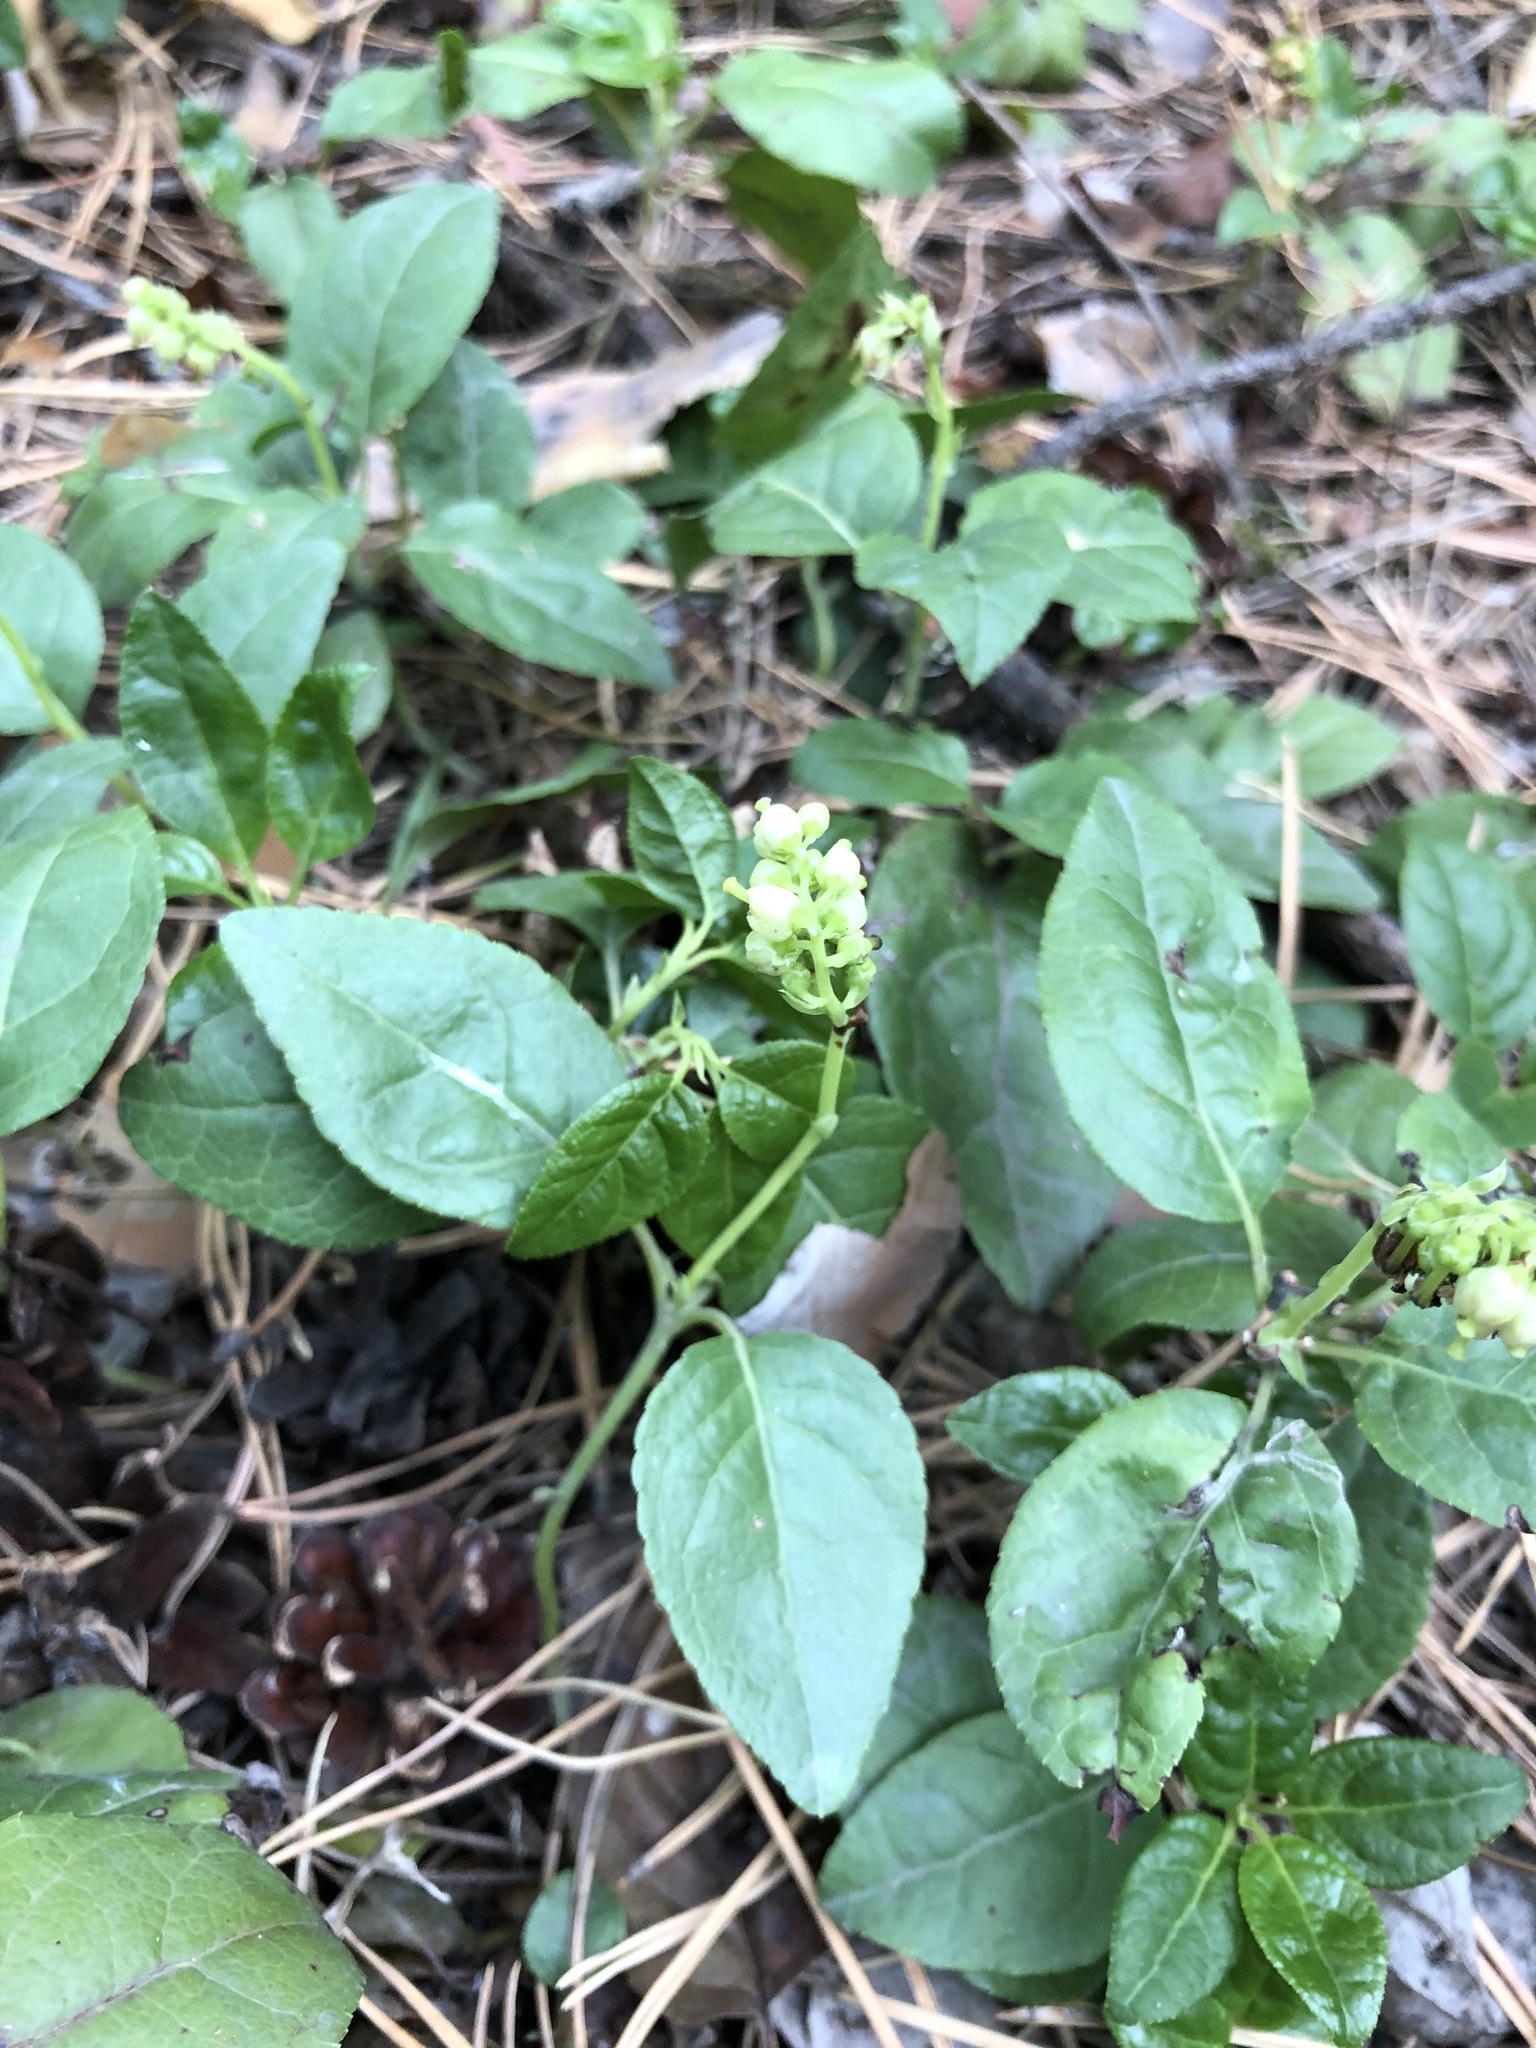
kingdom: Plantae
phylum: Tracheophyta
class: Magnoliopsida
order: Ericales
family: Ericaceae
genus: Orthilia
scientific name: Orthilia secunda
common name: One-sided orthilia
